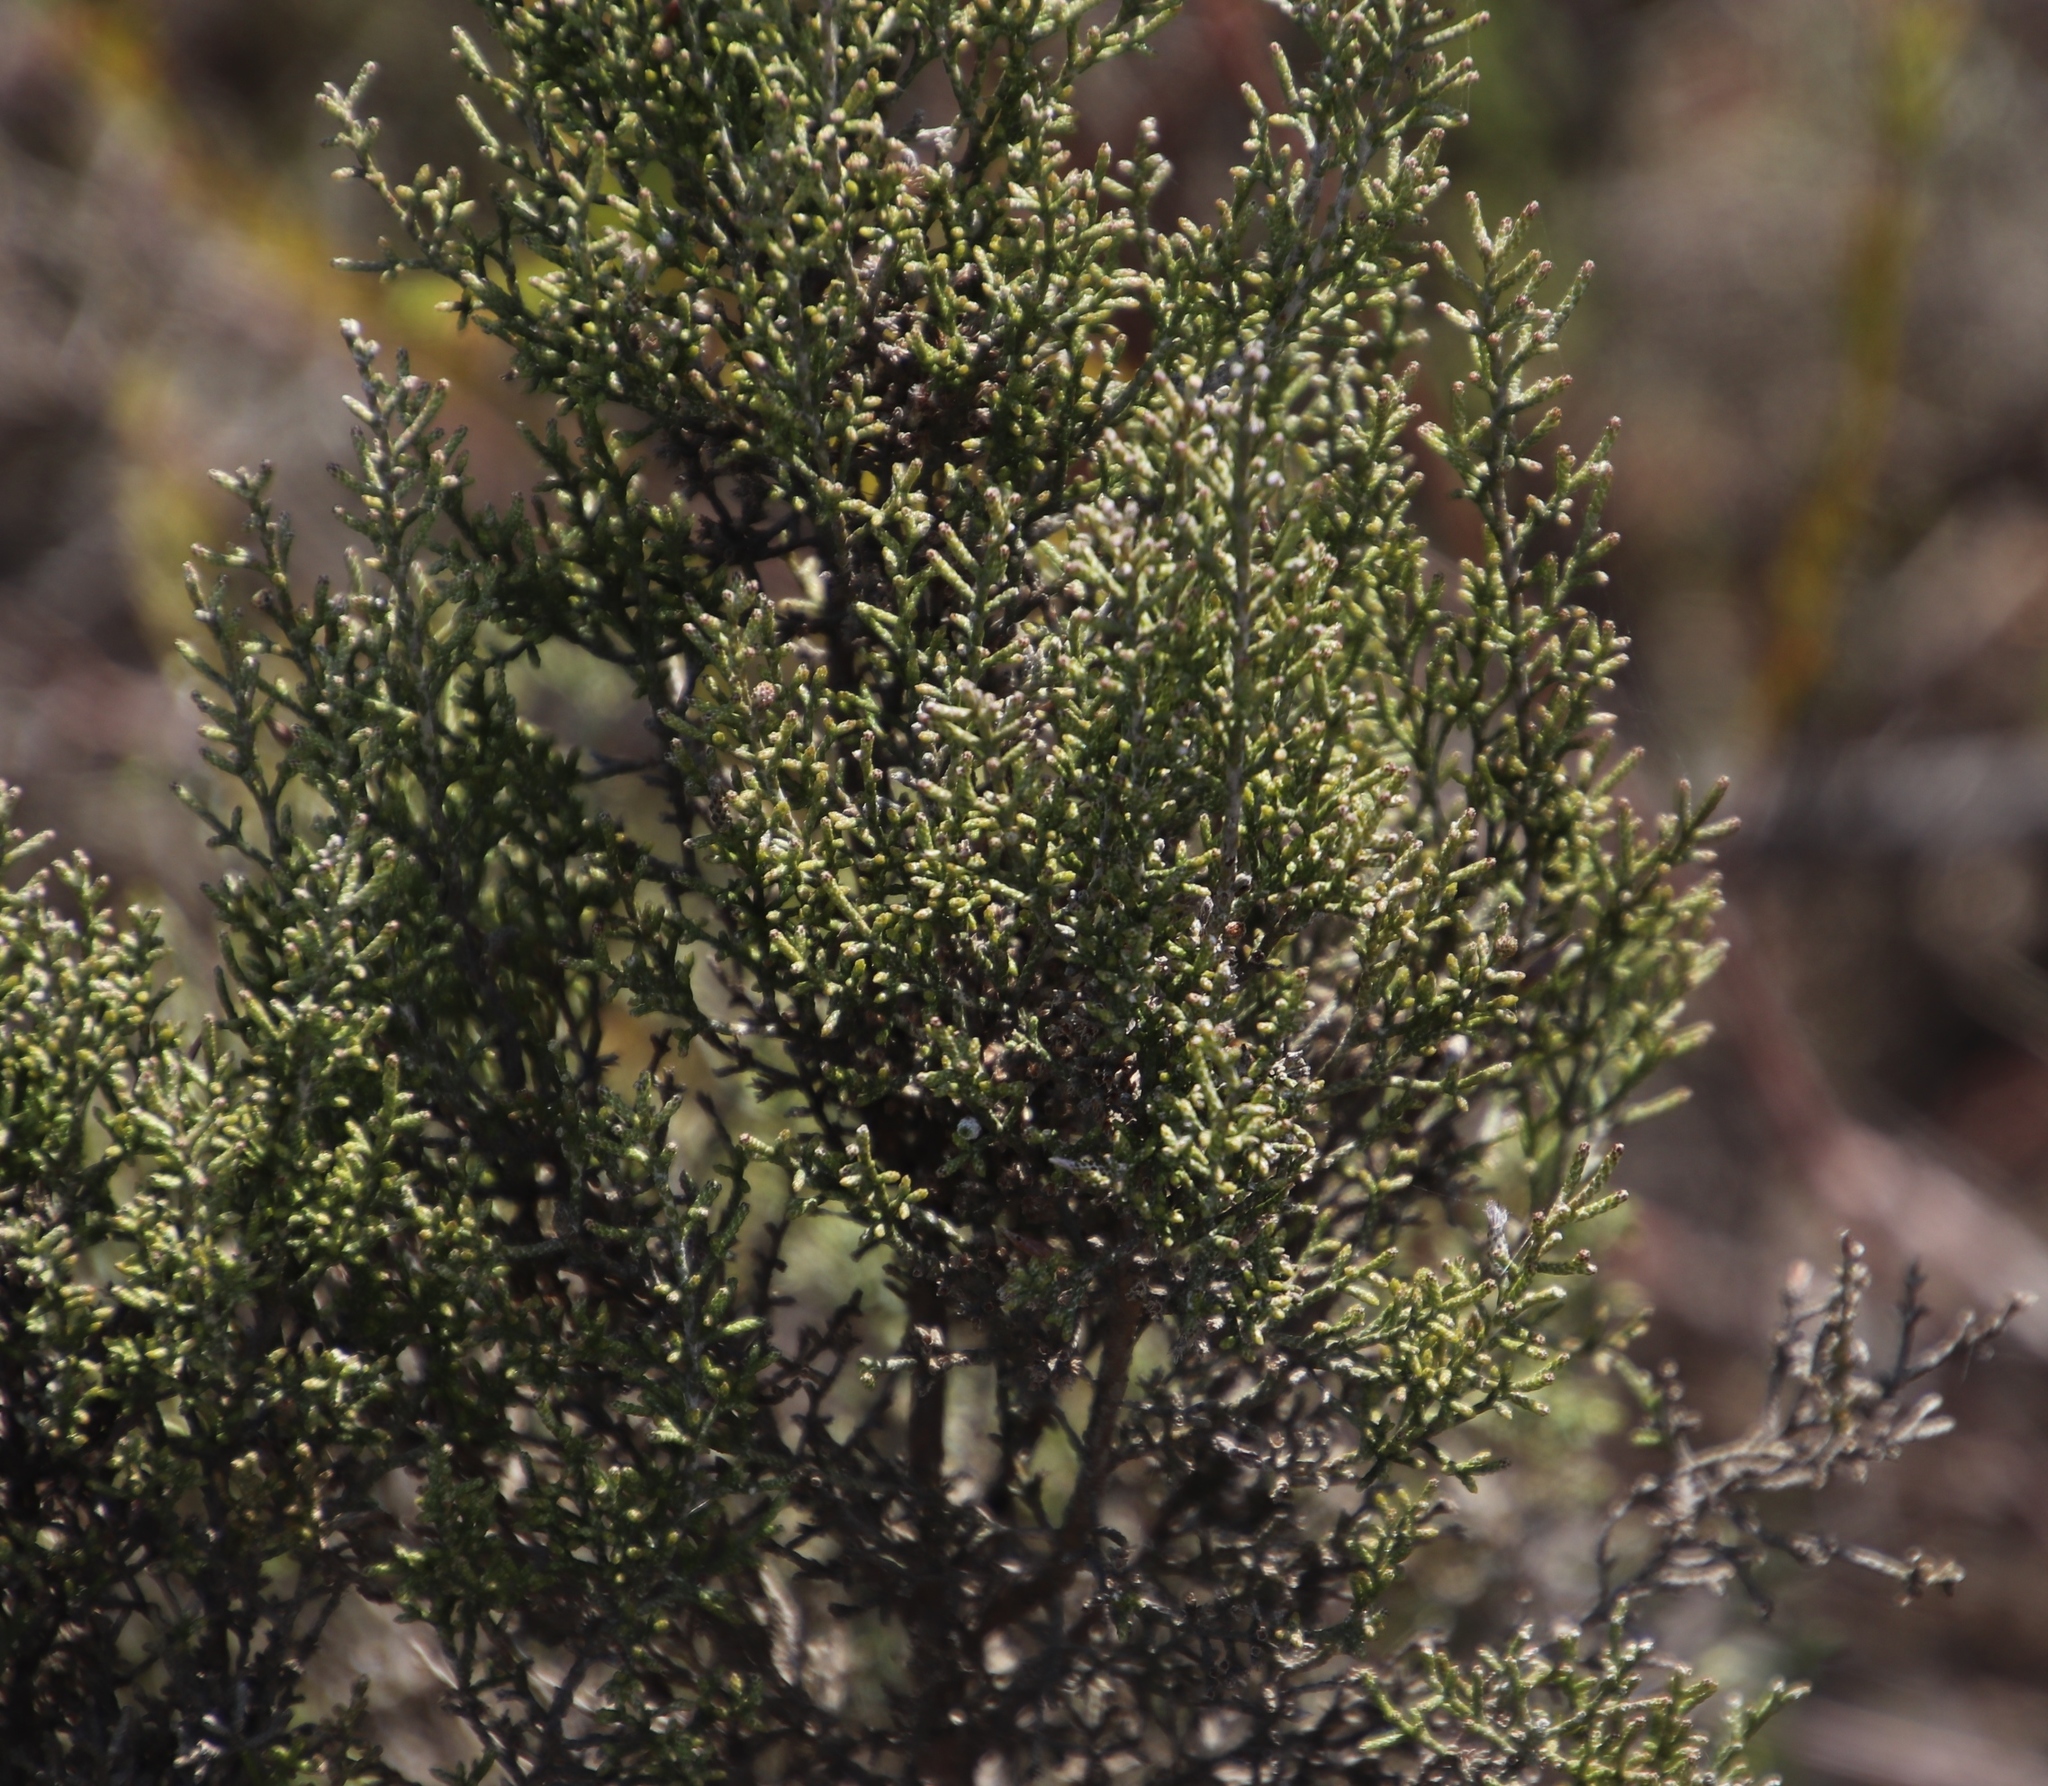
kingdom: Plantae
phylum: Tracheophyta
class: Magnoliopsida
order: Asterales
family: Asteraceae
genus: Dicerothamnus
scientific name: Dicerothamnus rhinocerotis
